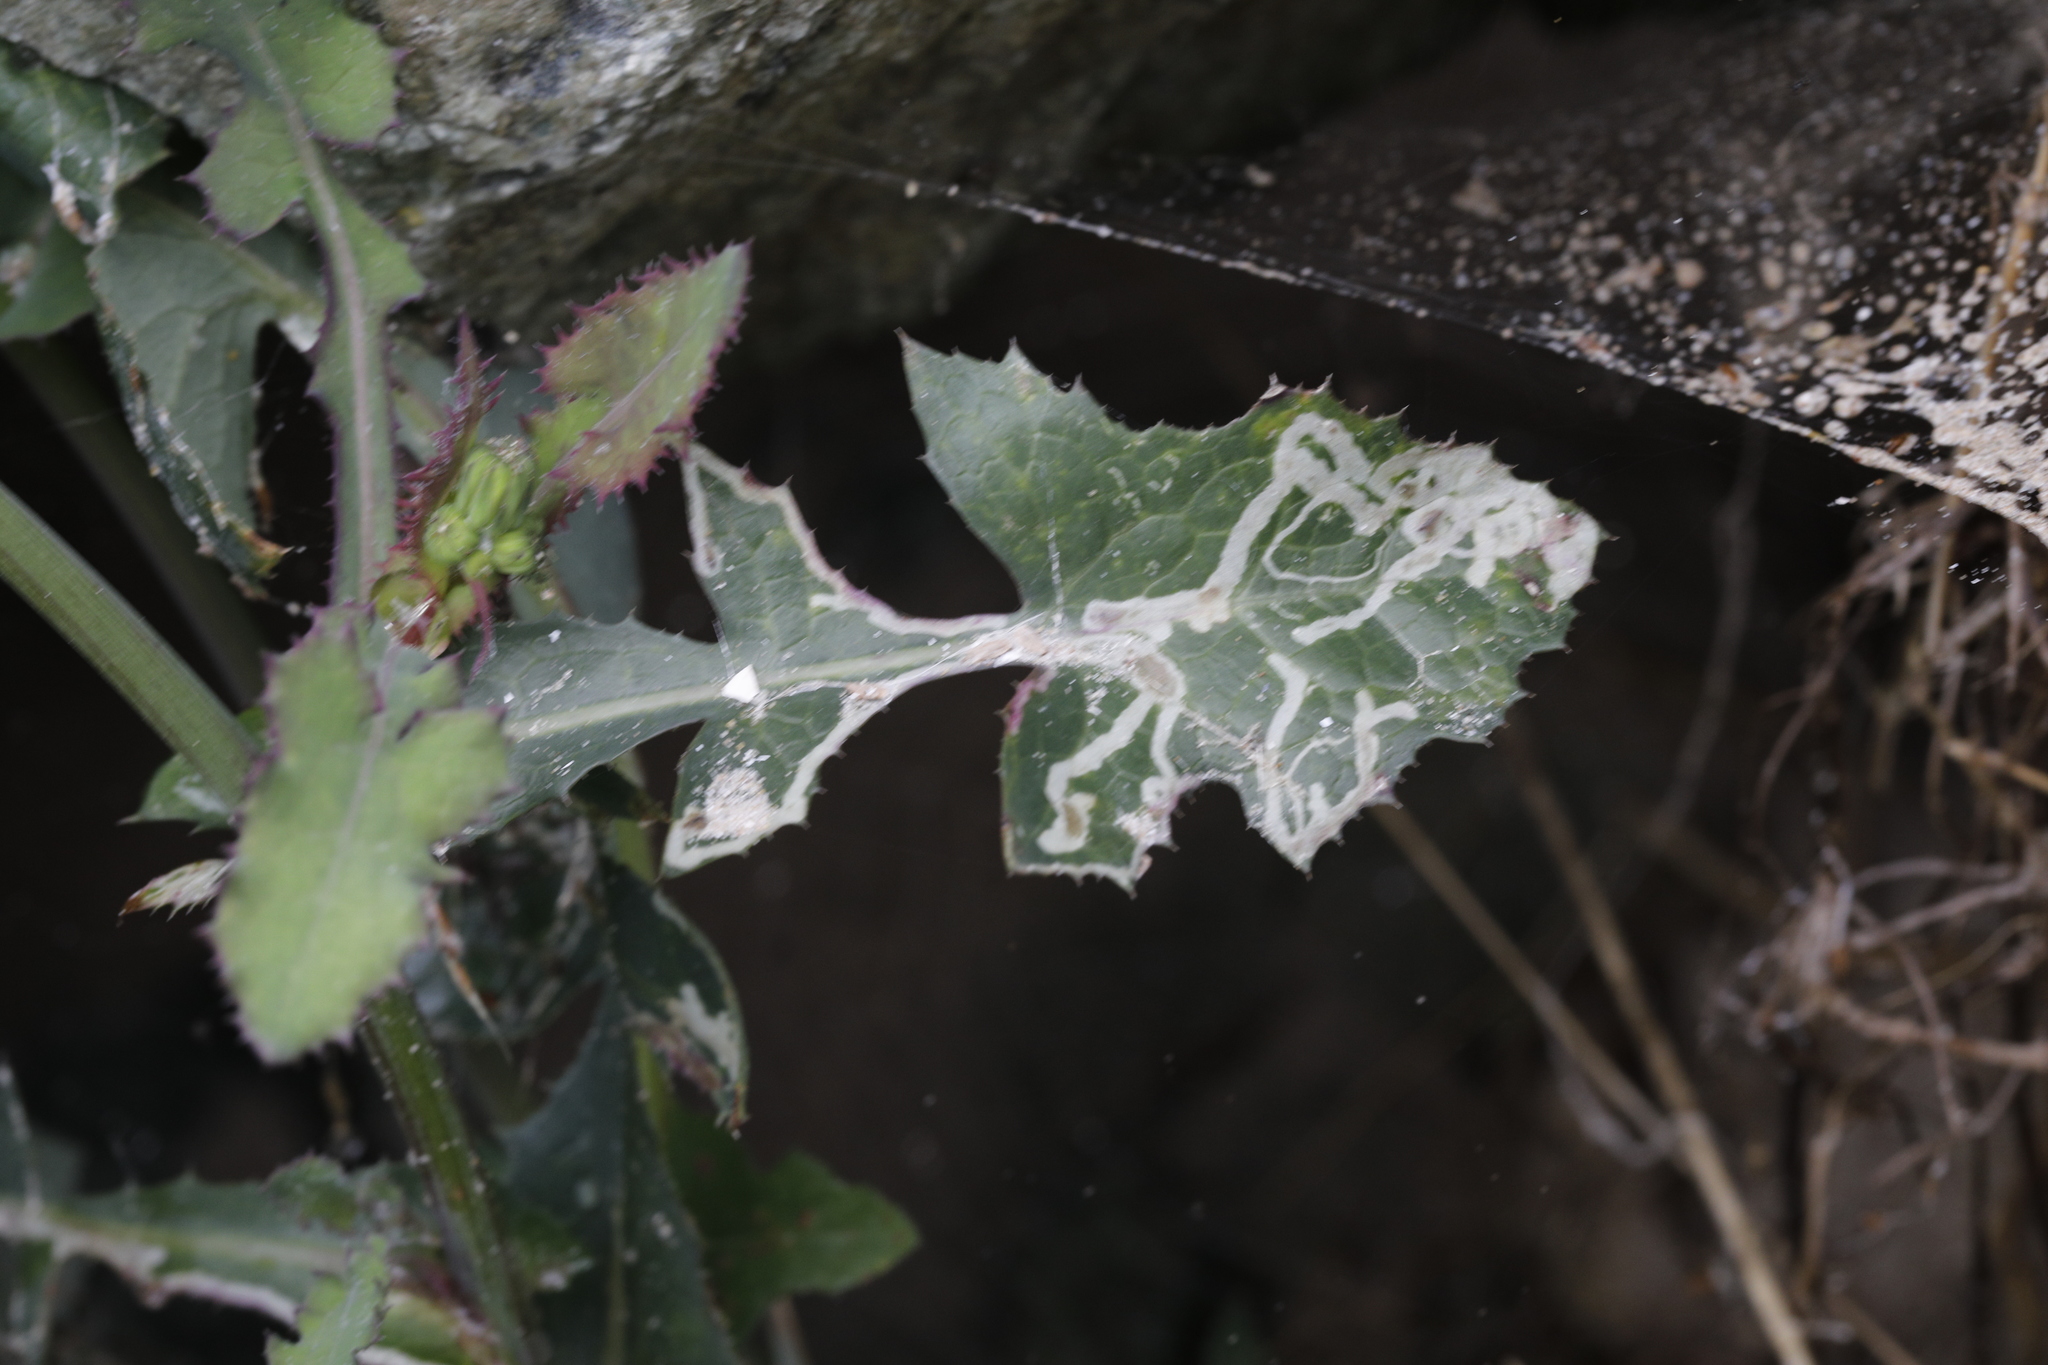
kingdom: Plantae
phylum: Tracheophyta
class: Magnoliopsida
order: Asterales
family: Asteraceae
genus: Sonchus
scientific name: Sonchus oleraceus
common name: Common sowthistle
